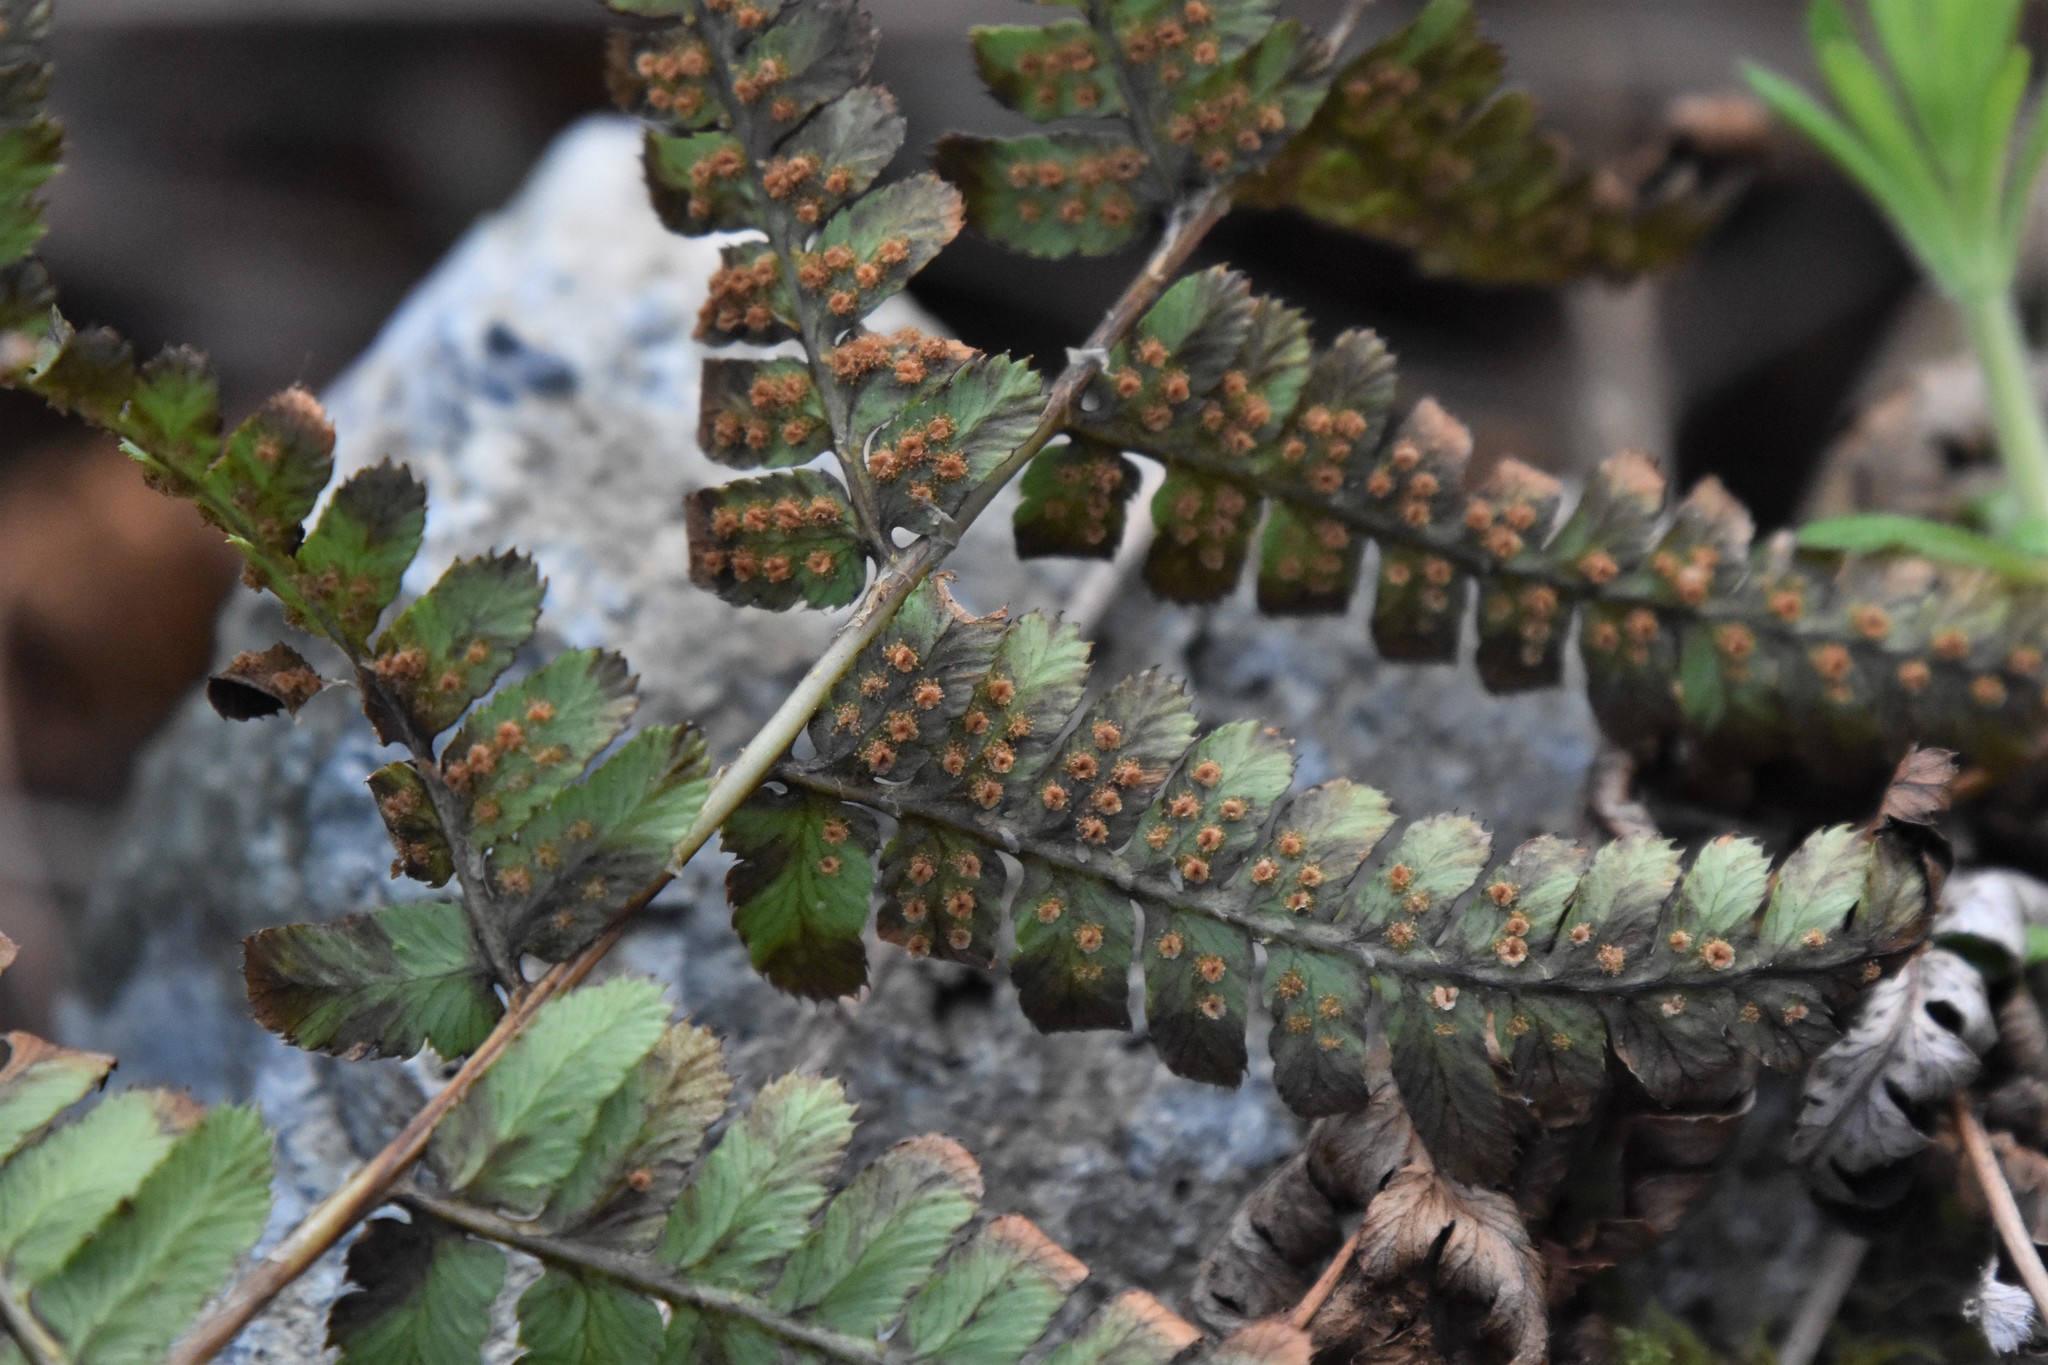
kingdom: Plantae
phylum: Tracheophyta
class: Polypodiopsida
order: Polypodiales
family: Dryopteridaceae
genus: Dryopteris
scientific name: Dryopteris arguta
